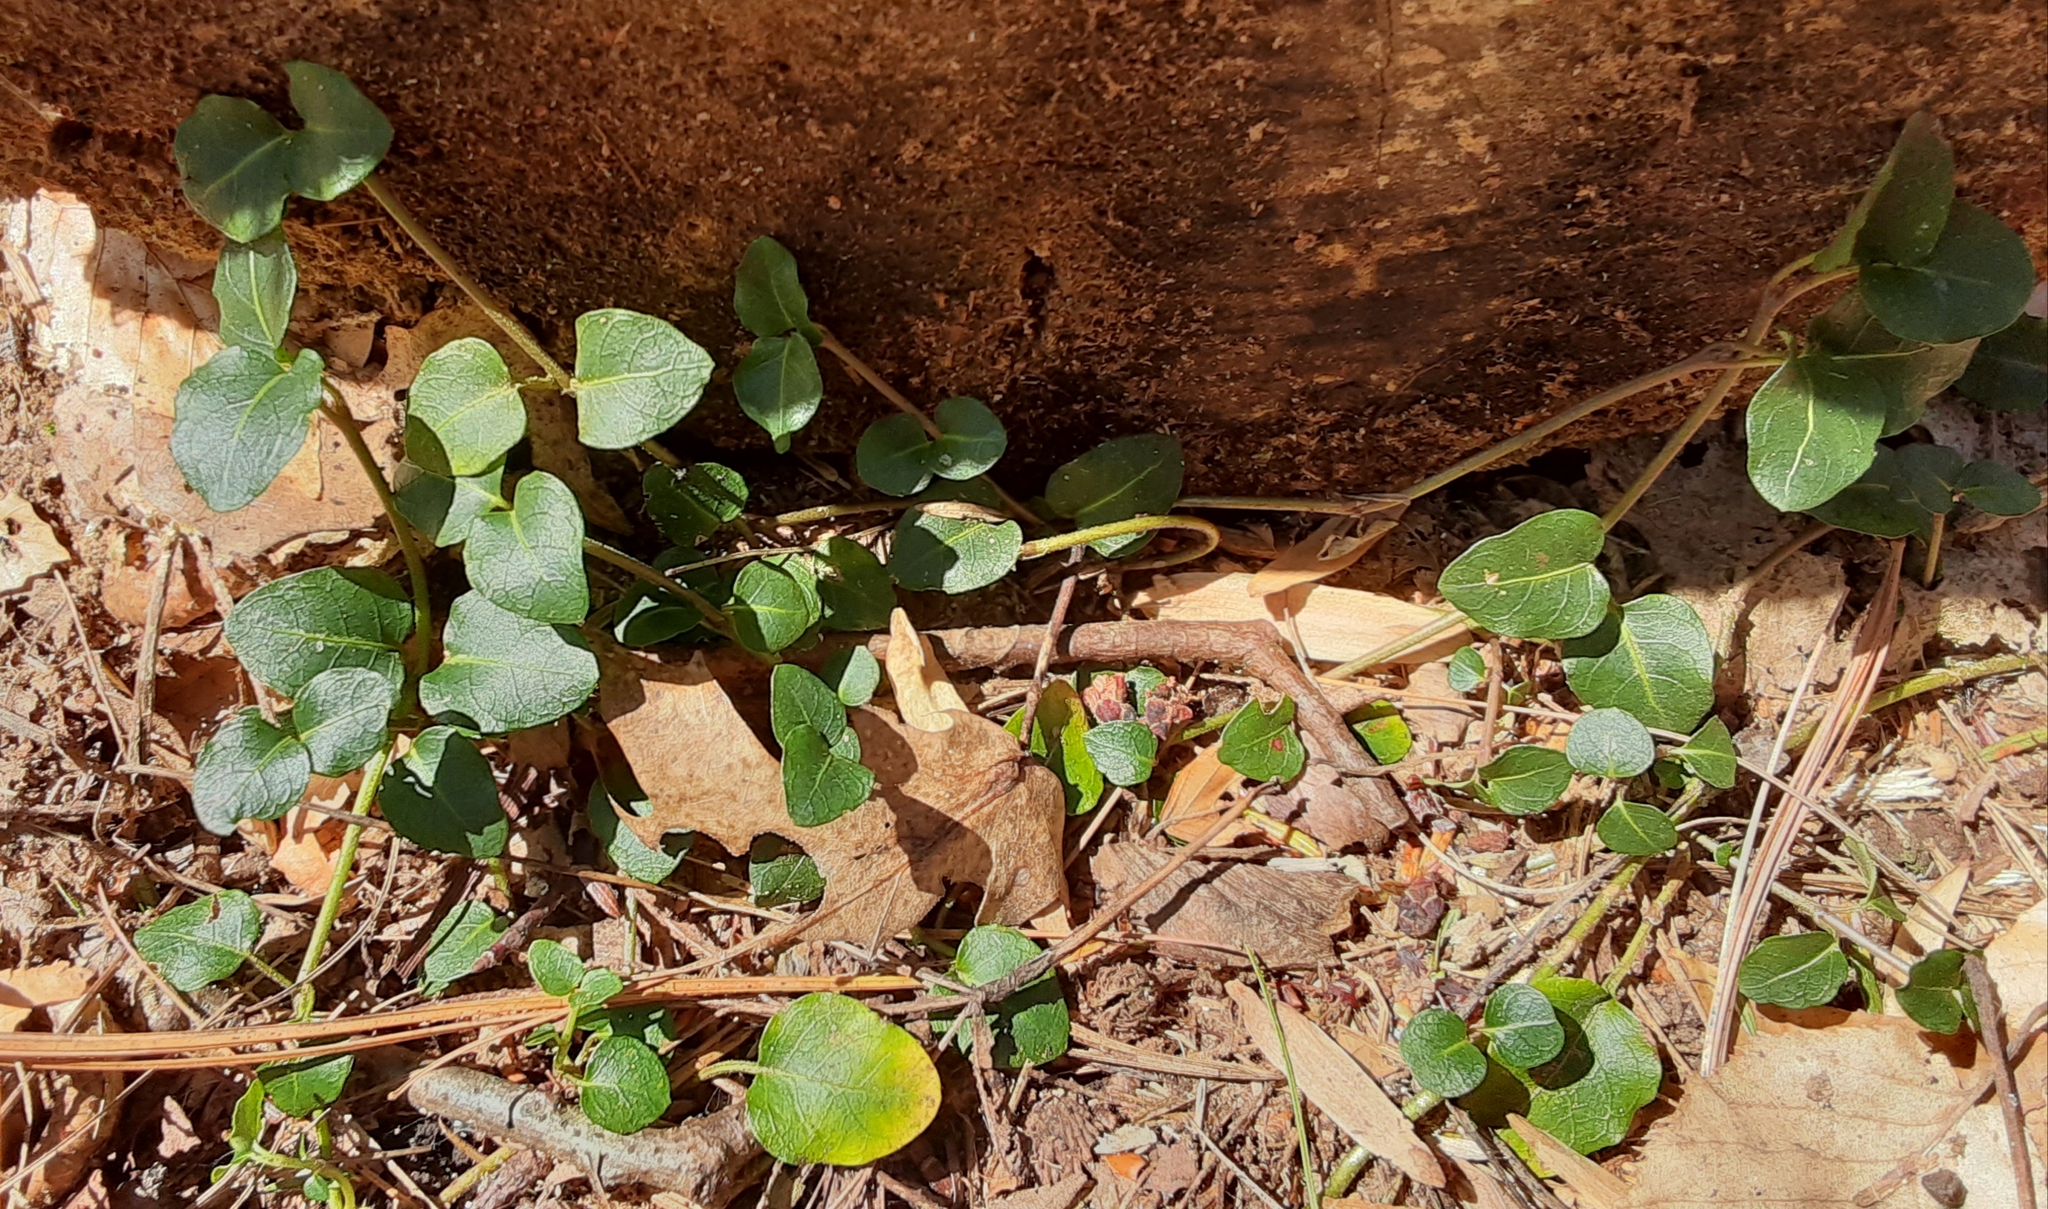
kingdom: Plantae
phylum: Tracheophyta
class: Magnoliopsida
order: Gentianales
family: Rubiaceae
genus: Mitchella
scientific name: Mitchella repens
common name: Partridge-berry
